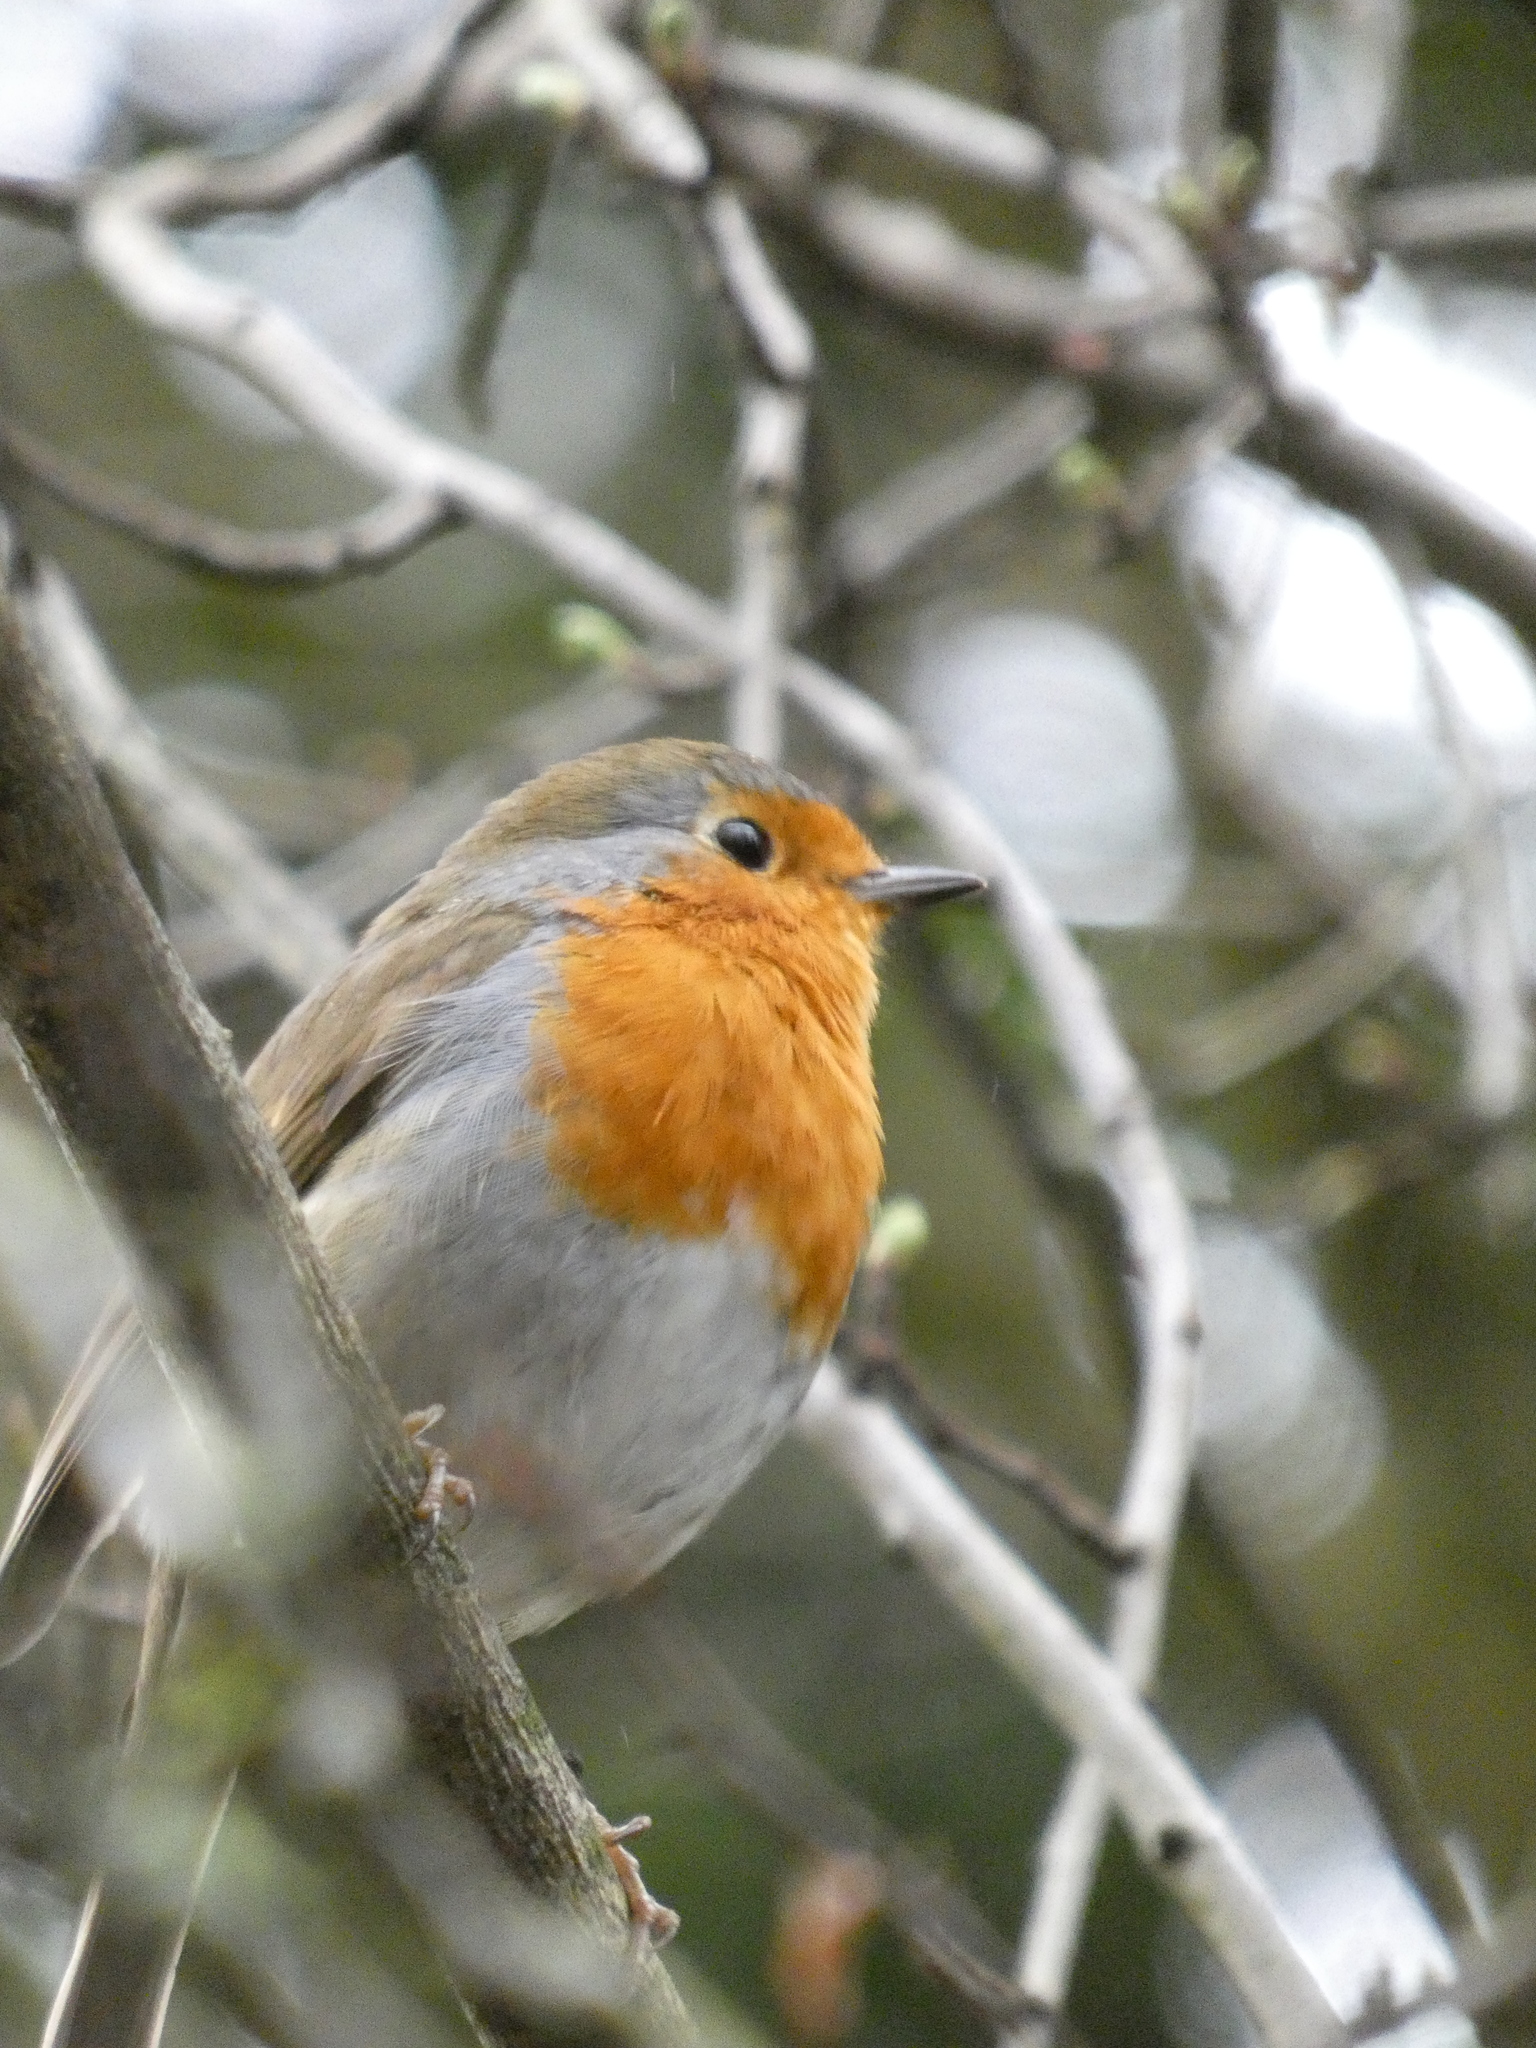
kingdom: Animalia
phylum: Chordata
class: Aves
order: Passeriformes
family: Muscicapidae
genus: Erithacus
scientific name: Erithacus rubecula
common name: European robin
